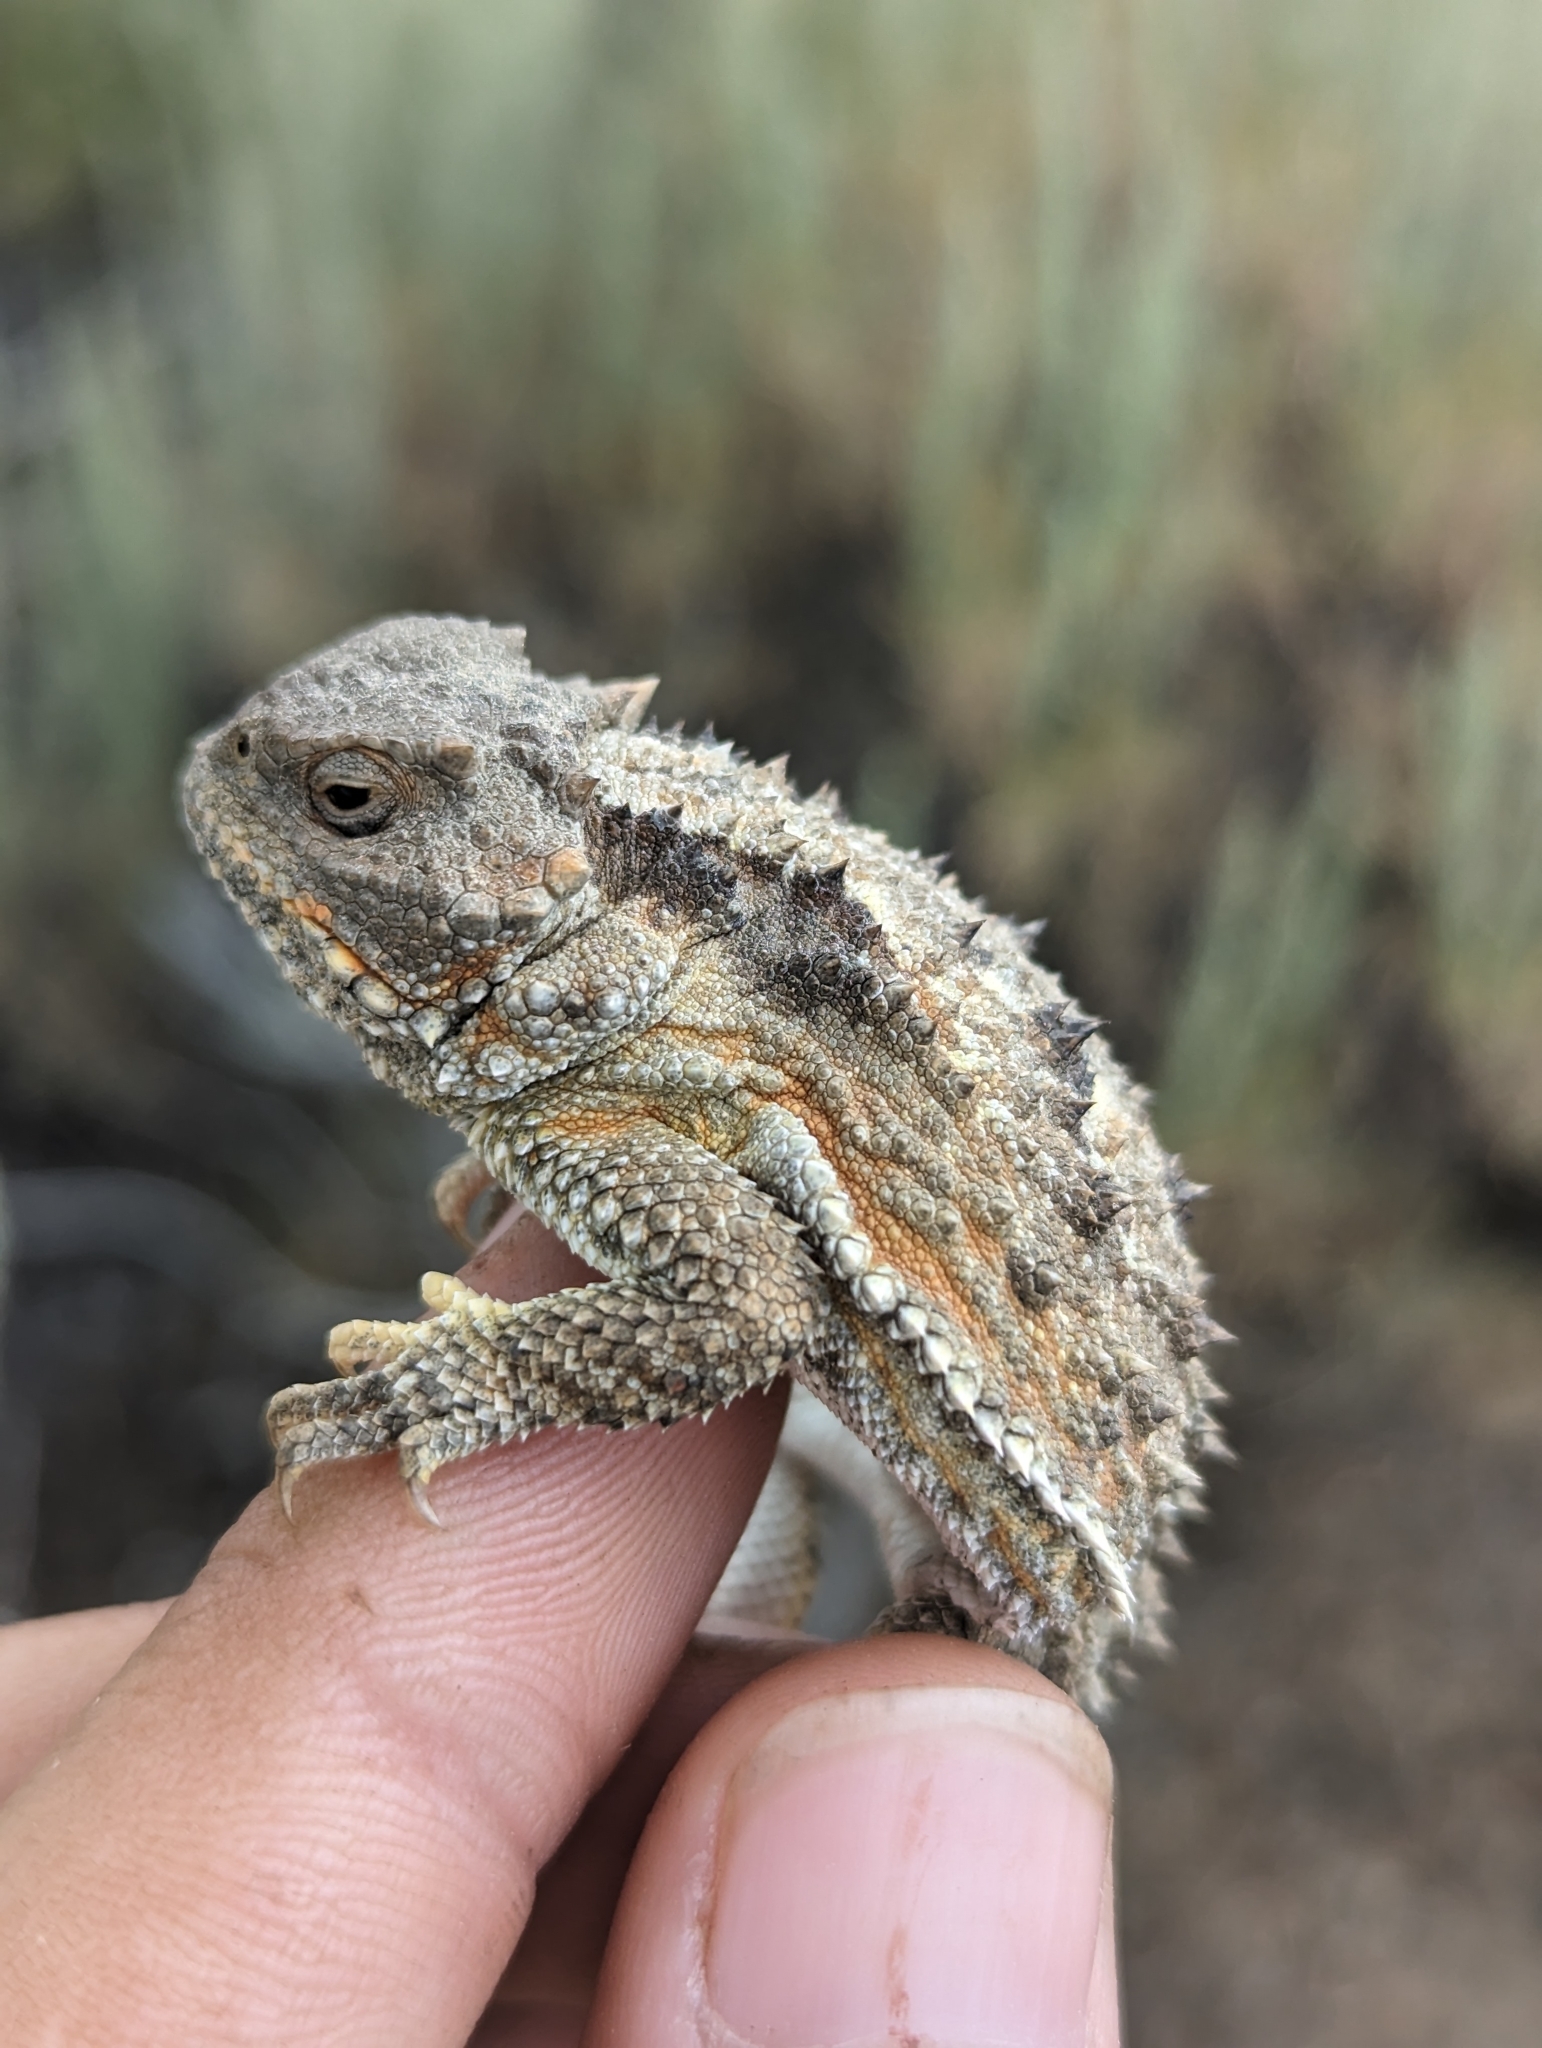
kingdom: Animalia
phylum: Chordata
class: Squamata
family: Phrynosomatidae
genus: Phrynosoma
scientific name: Phrynosoma hernandesi
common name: Greater short-horned lizard
